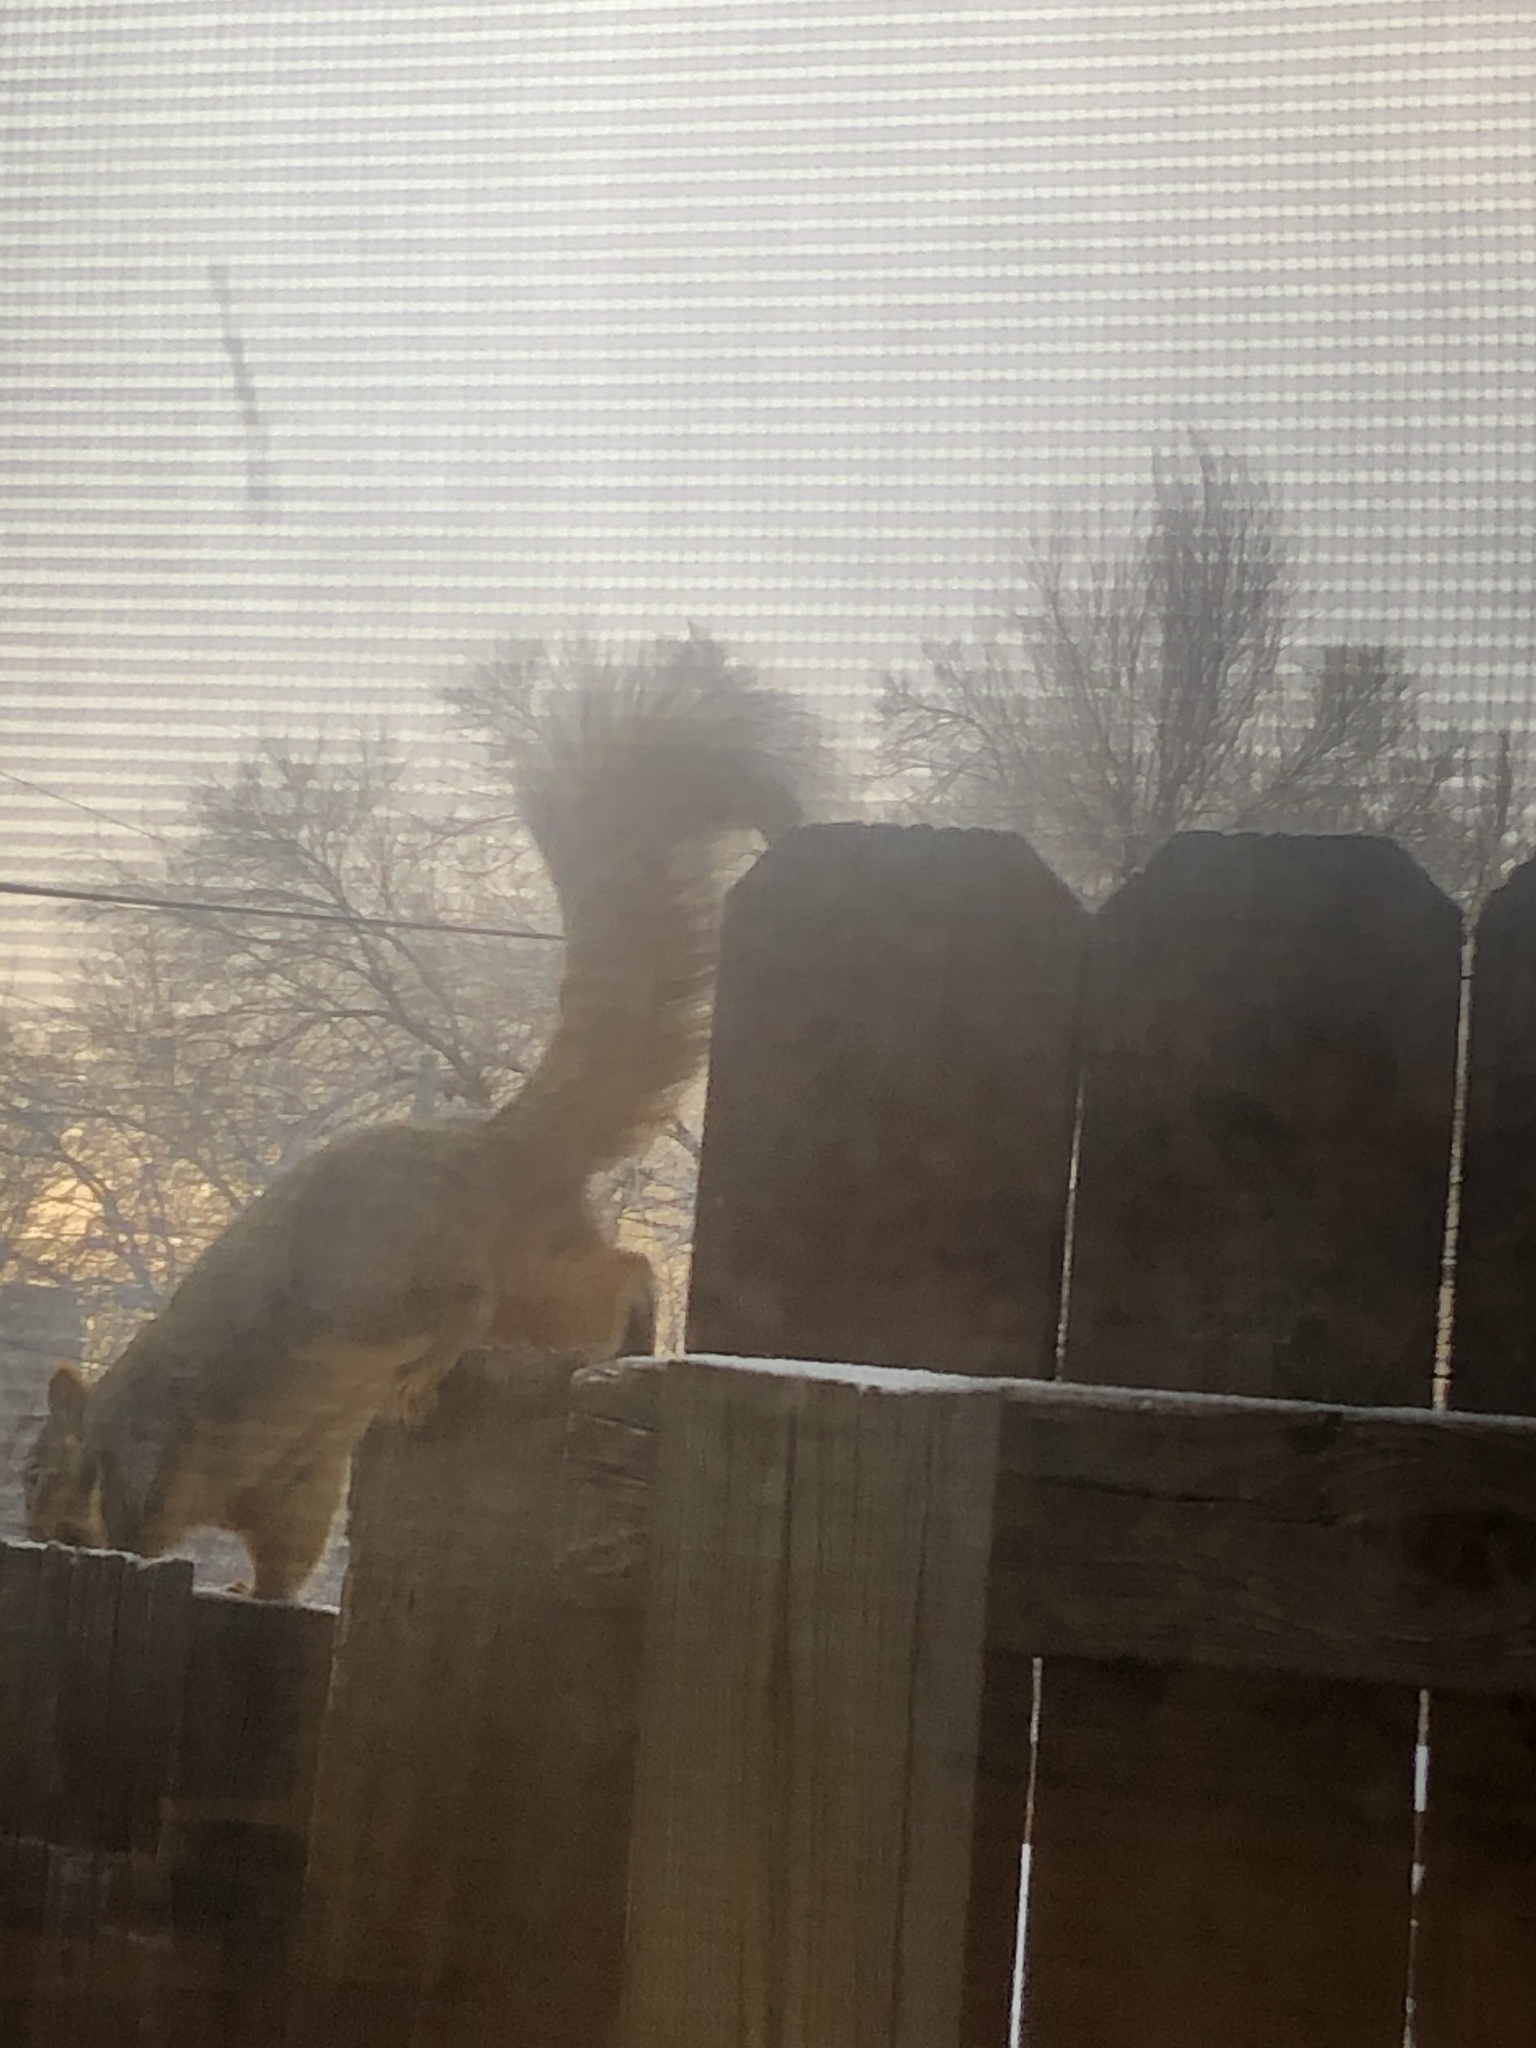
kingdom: Animalia
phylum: Chordata
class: Mammalia
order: Rodentia
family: Sciuridae
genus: Sciurus
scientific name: Sciurus niger
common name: Fox squirrel
